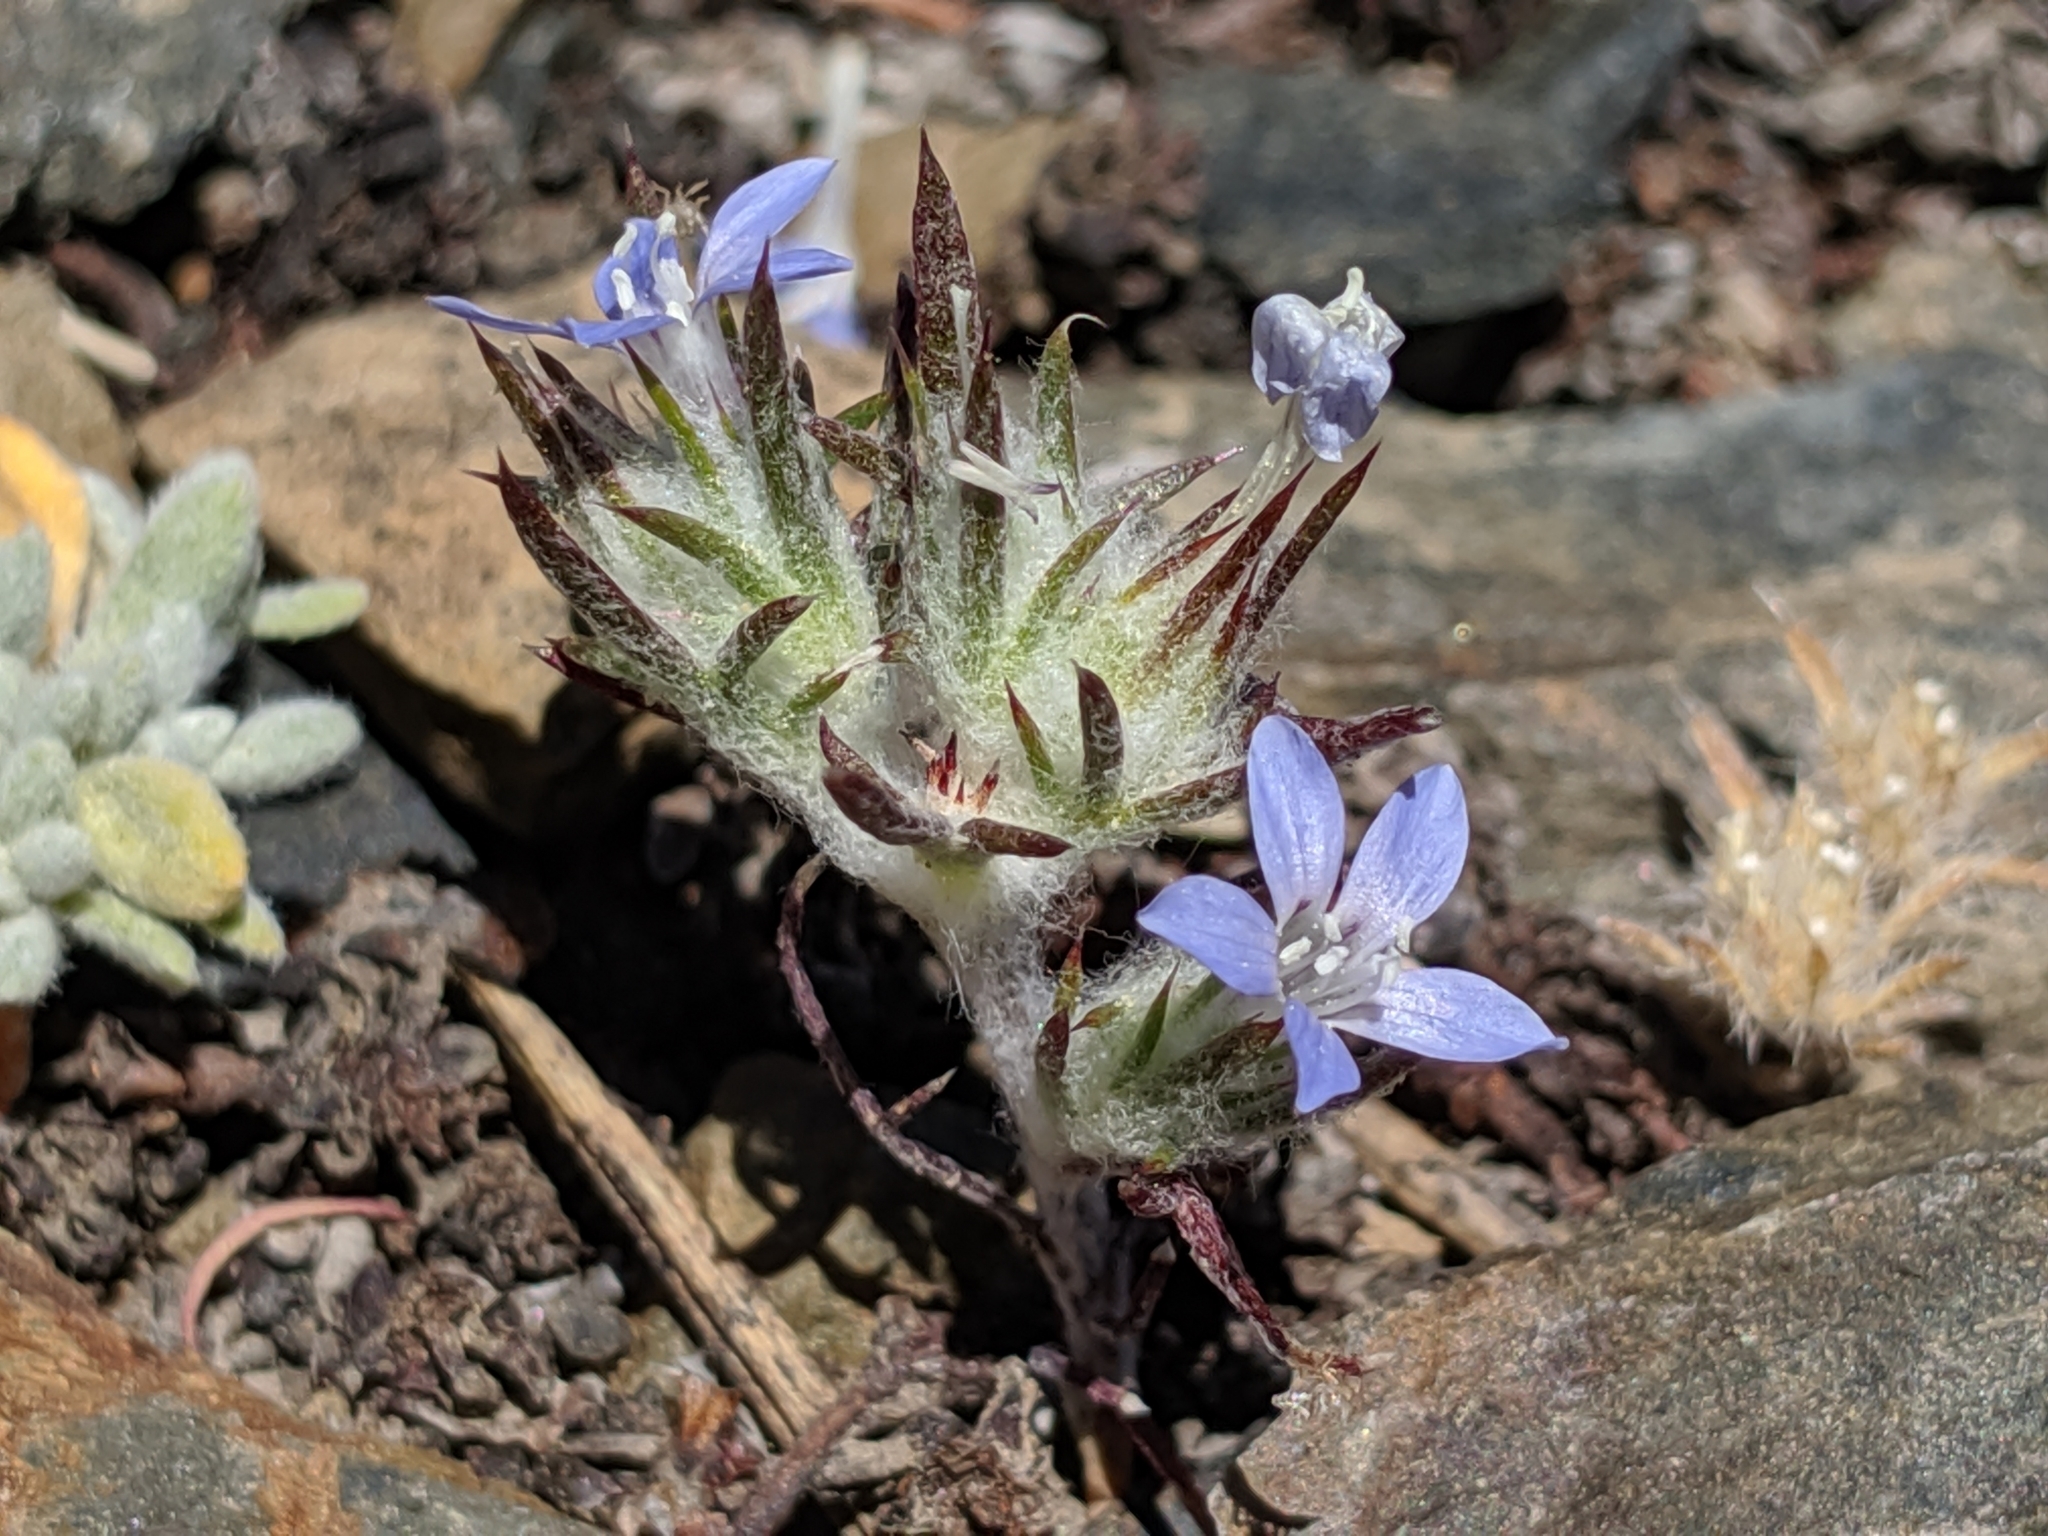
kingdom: Plantae
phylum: Tracheophyta
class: Magnoliopsida
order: Ericales
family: Polemoniaceae
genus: Eriastrum
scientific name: Eriastrum wilcoxii
